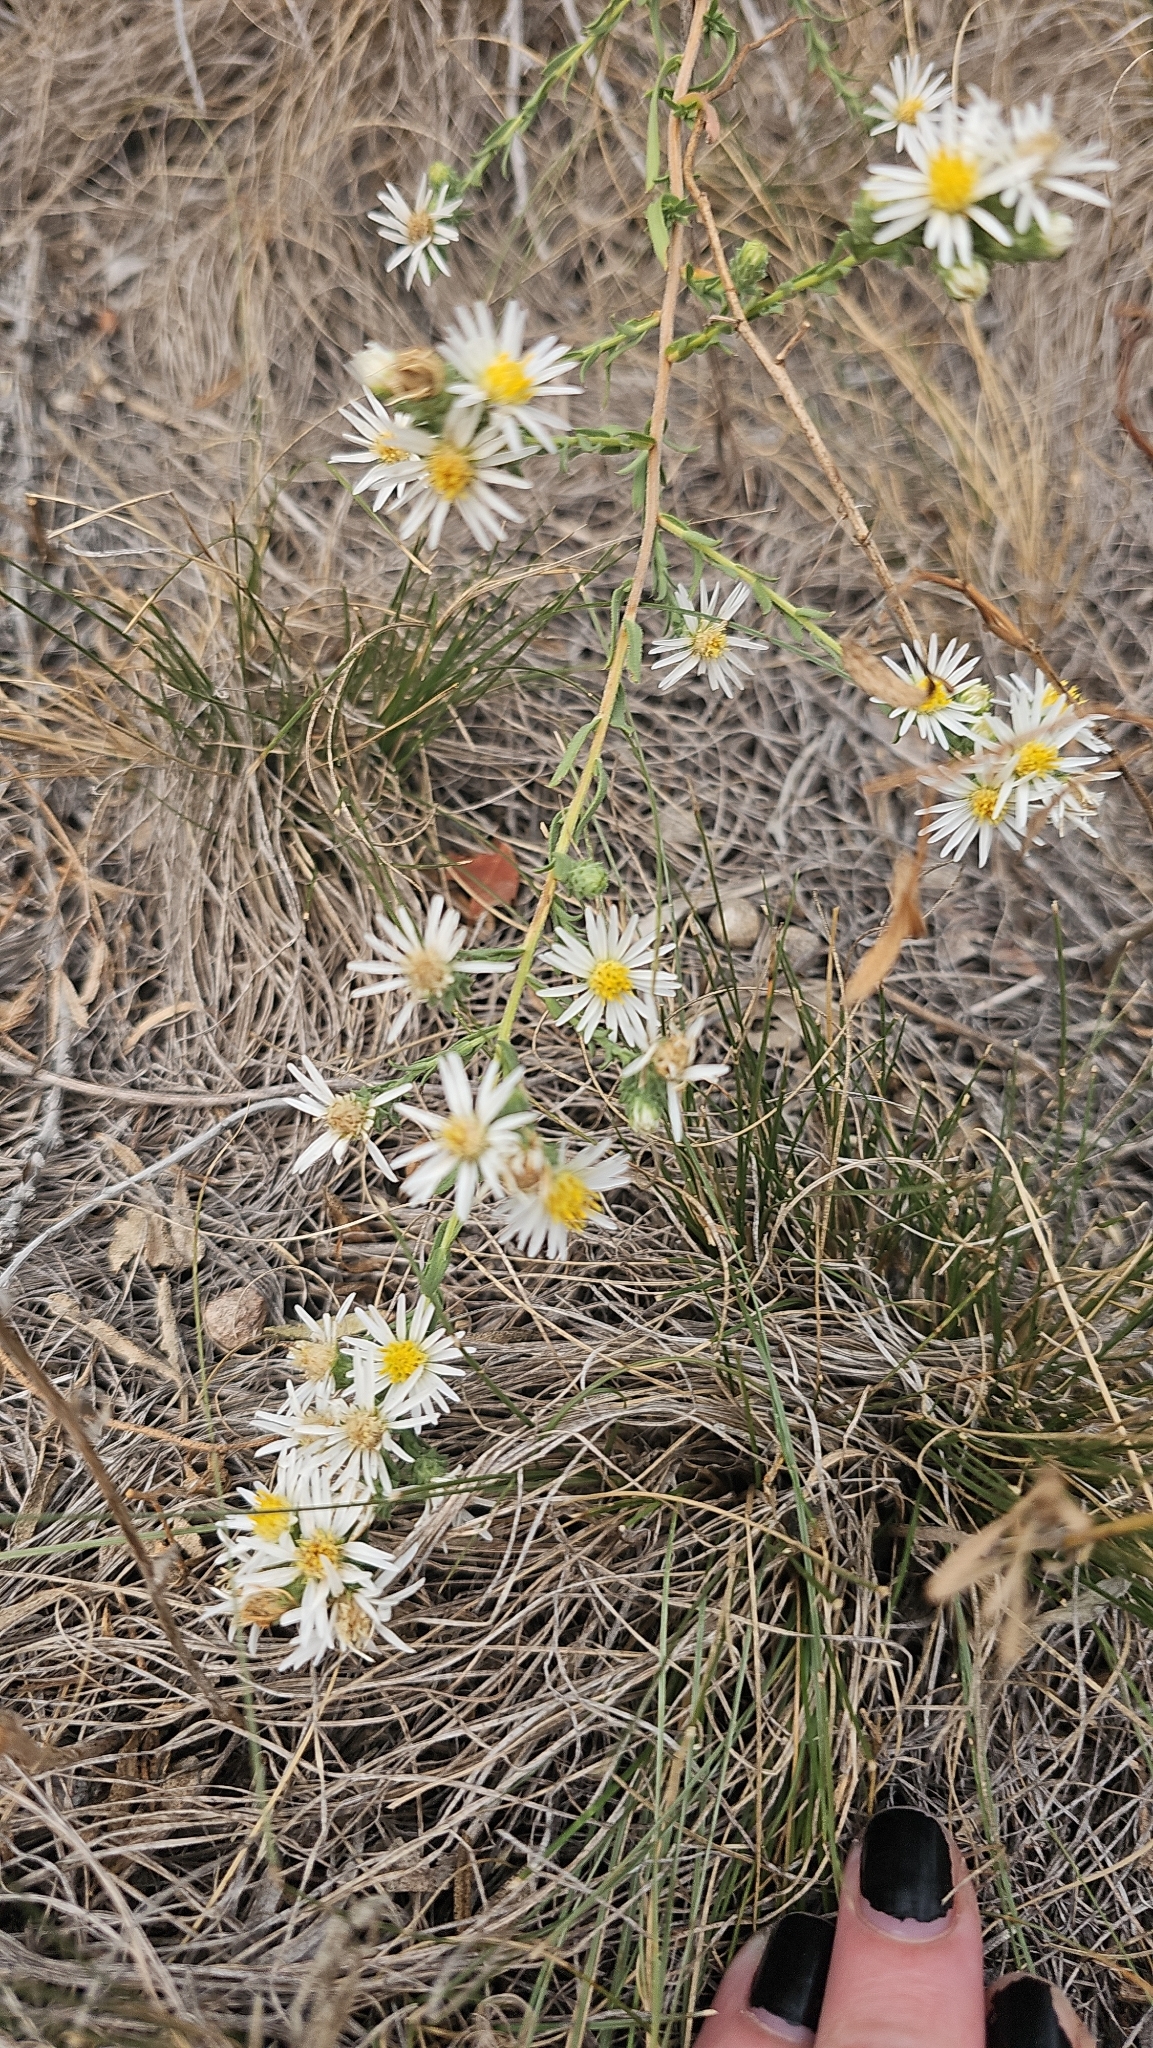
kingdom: Plantae
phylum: Tracheophyta
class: Magnoliopsida
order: Asterales
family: Asteraceae
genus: Symphyotrichum
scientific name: Symphyotrichum falcatum
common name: Creeping white prairie aster
